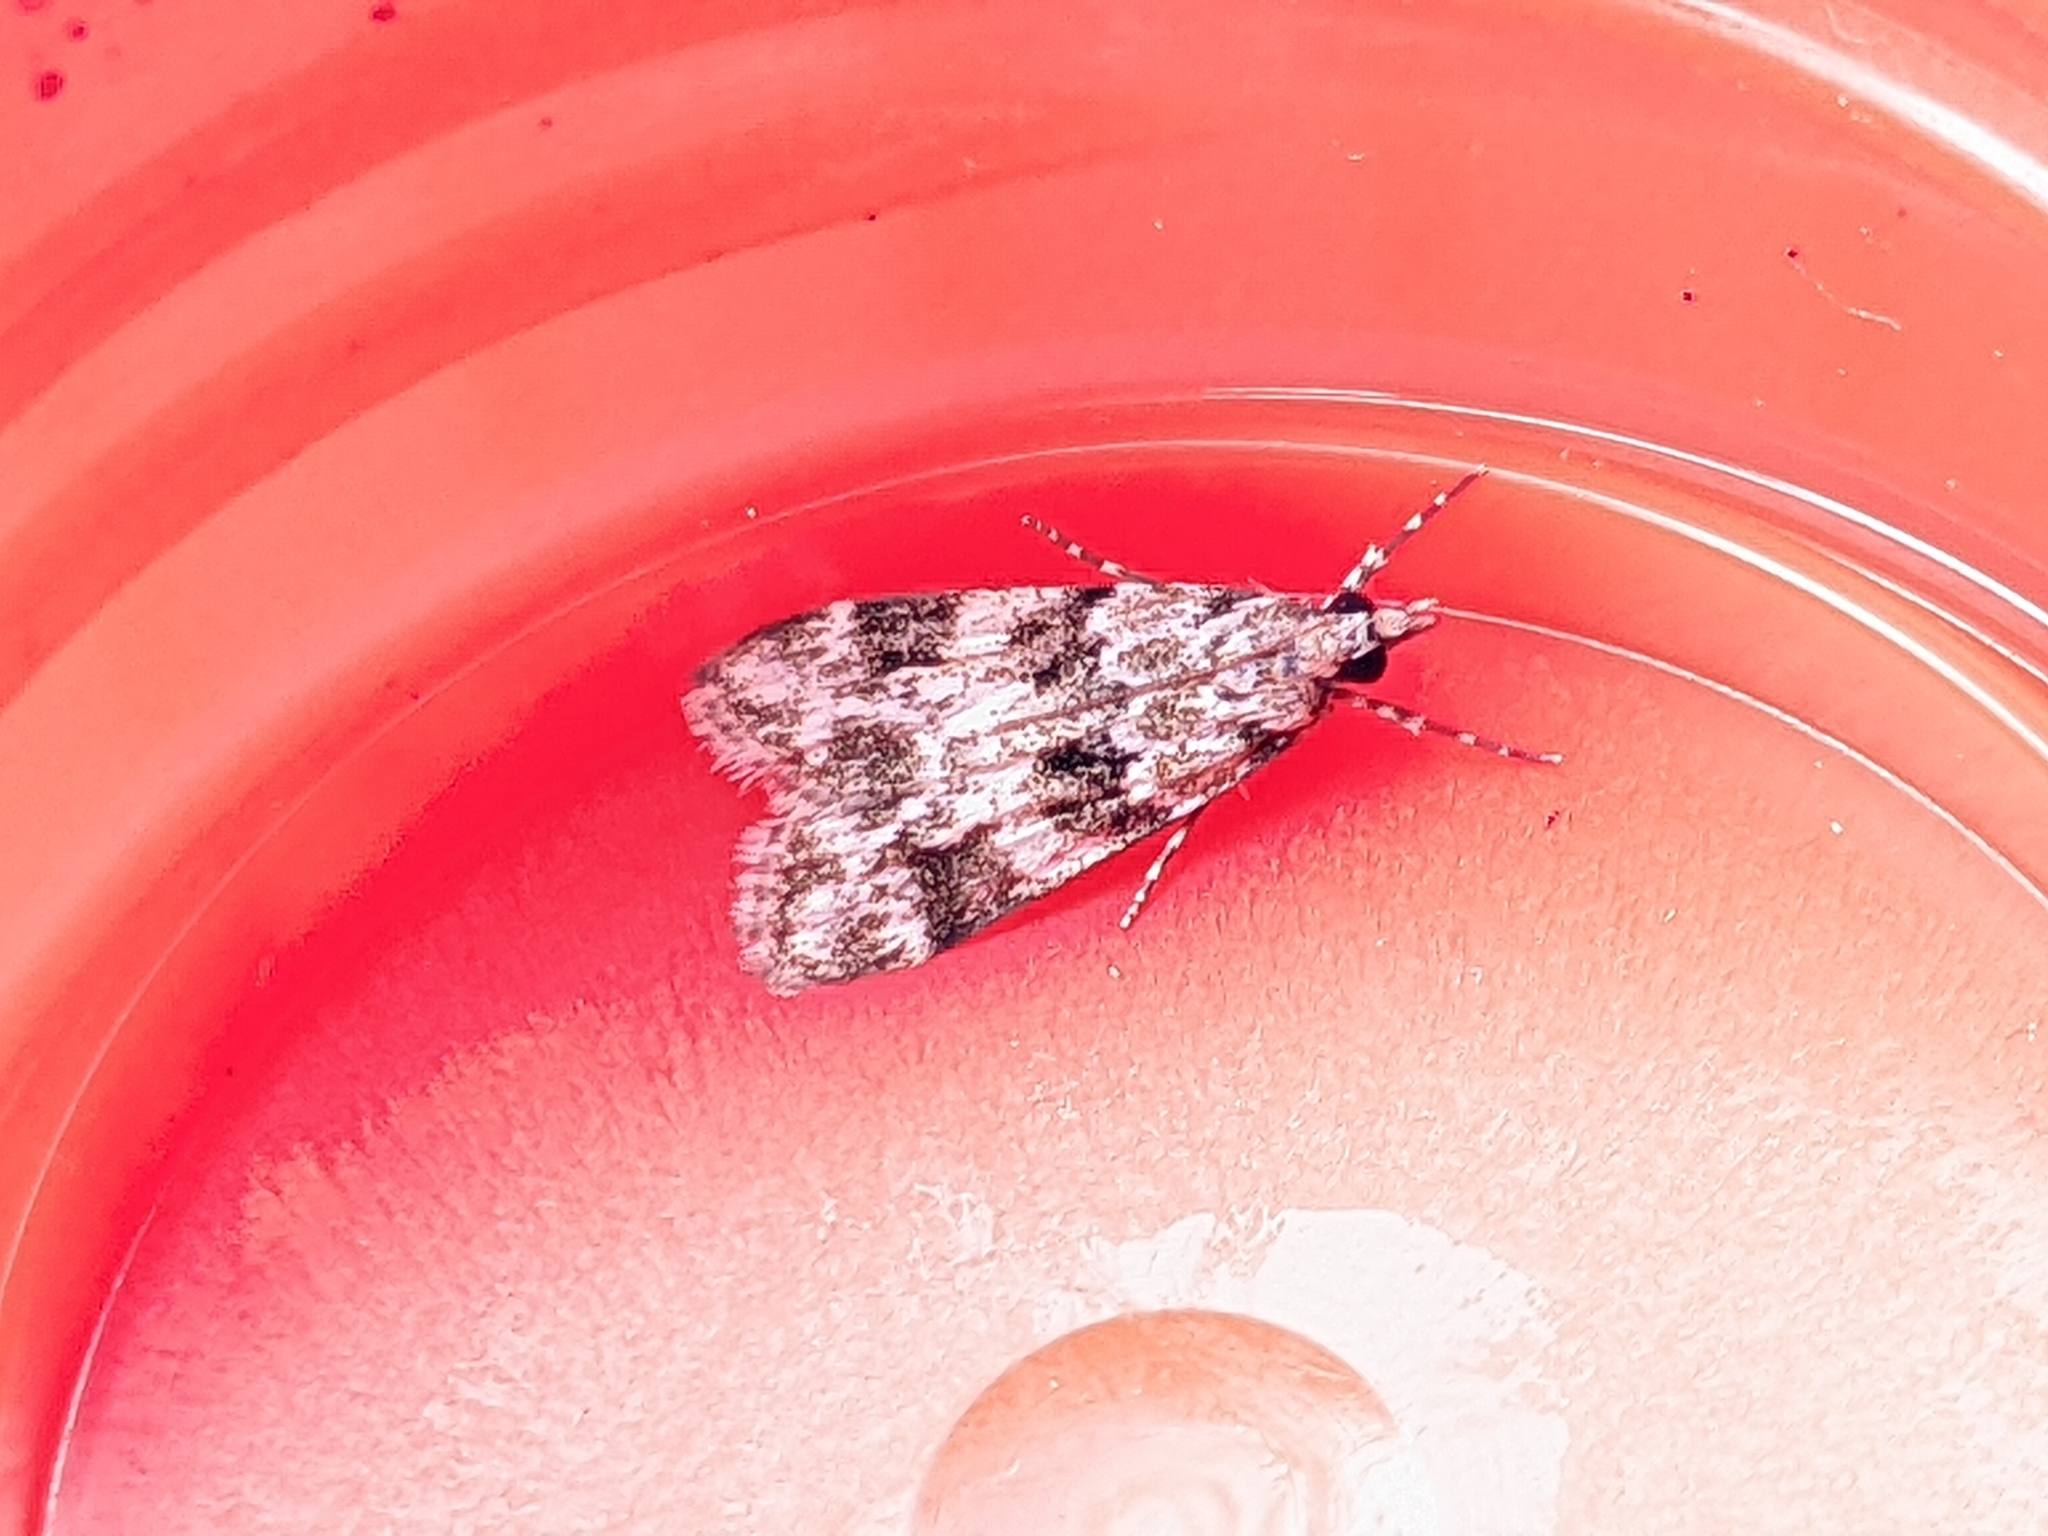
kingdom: Animalia
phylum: Arthropoda
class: Insecta
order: Lepidoptera
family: Crambidae
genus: Eudonia
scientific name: Eudonia delunella
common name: Pied grey
